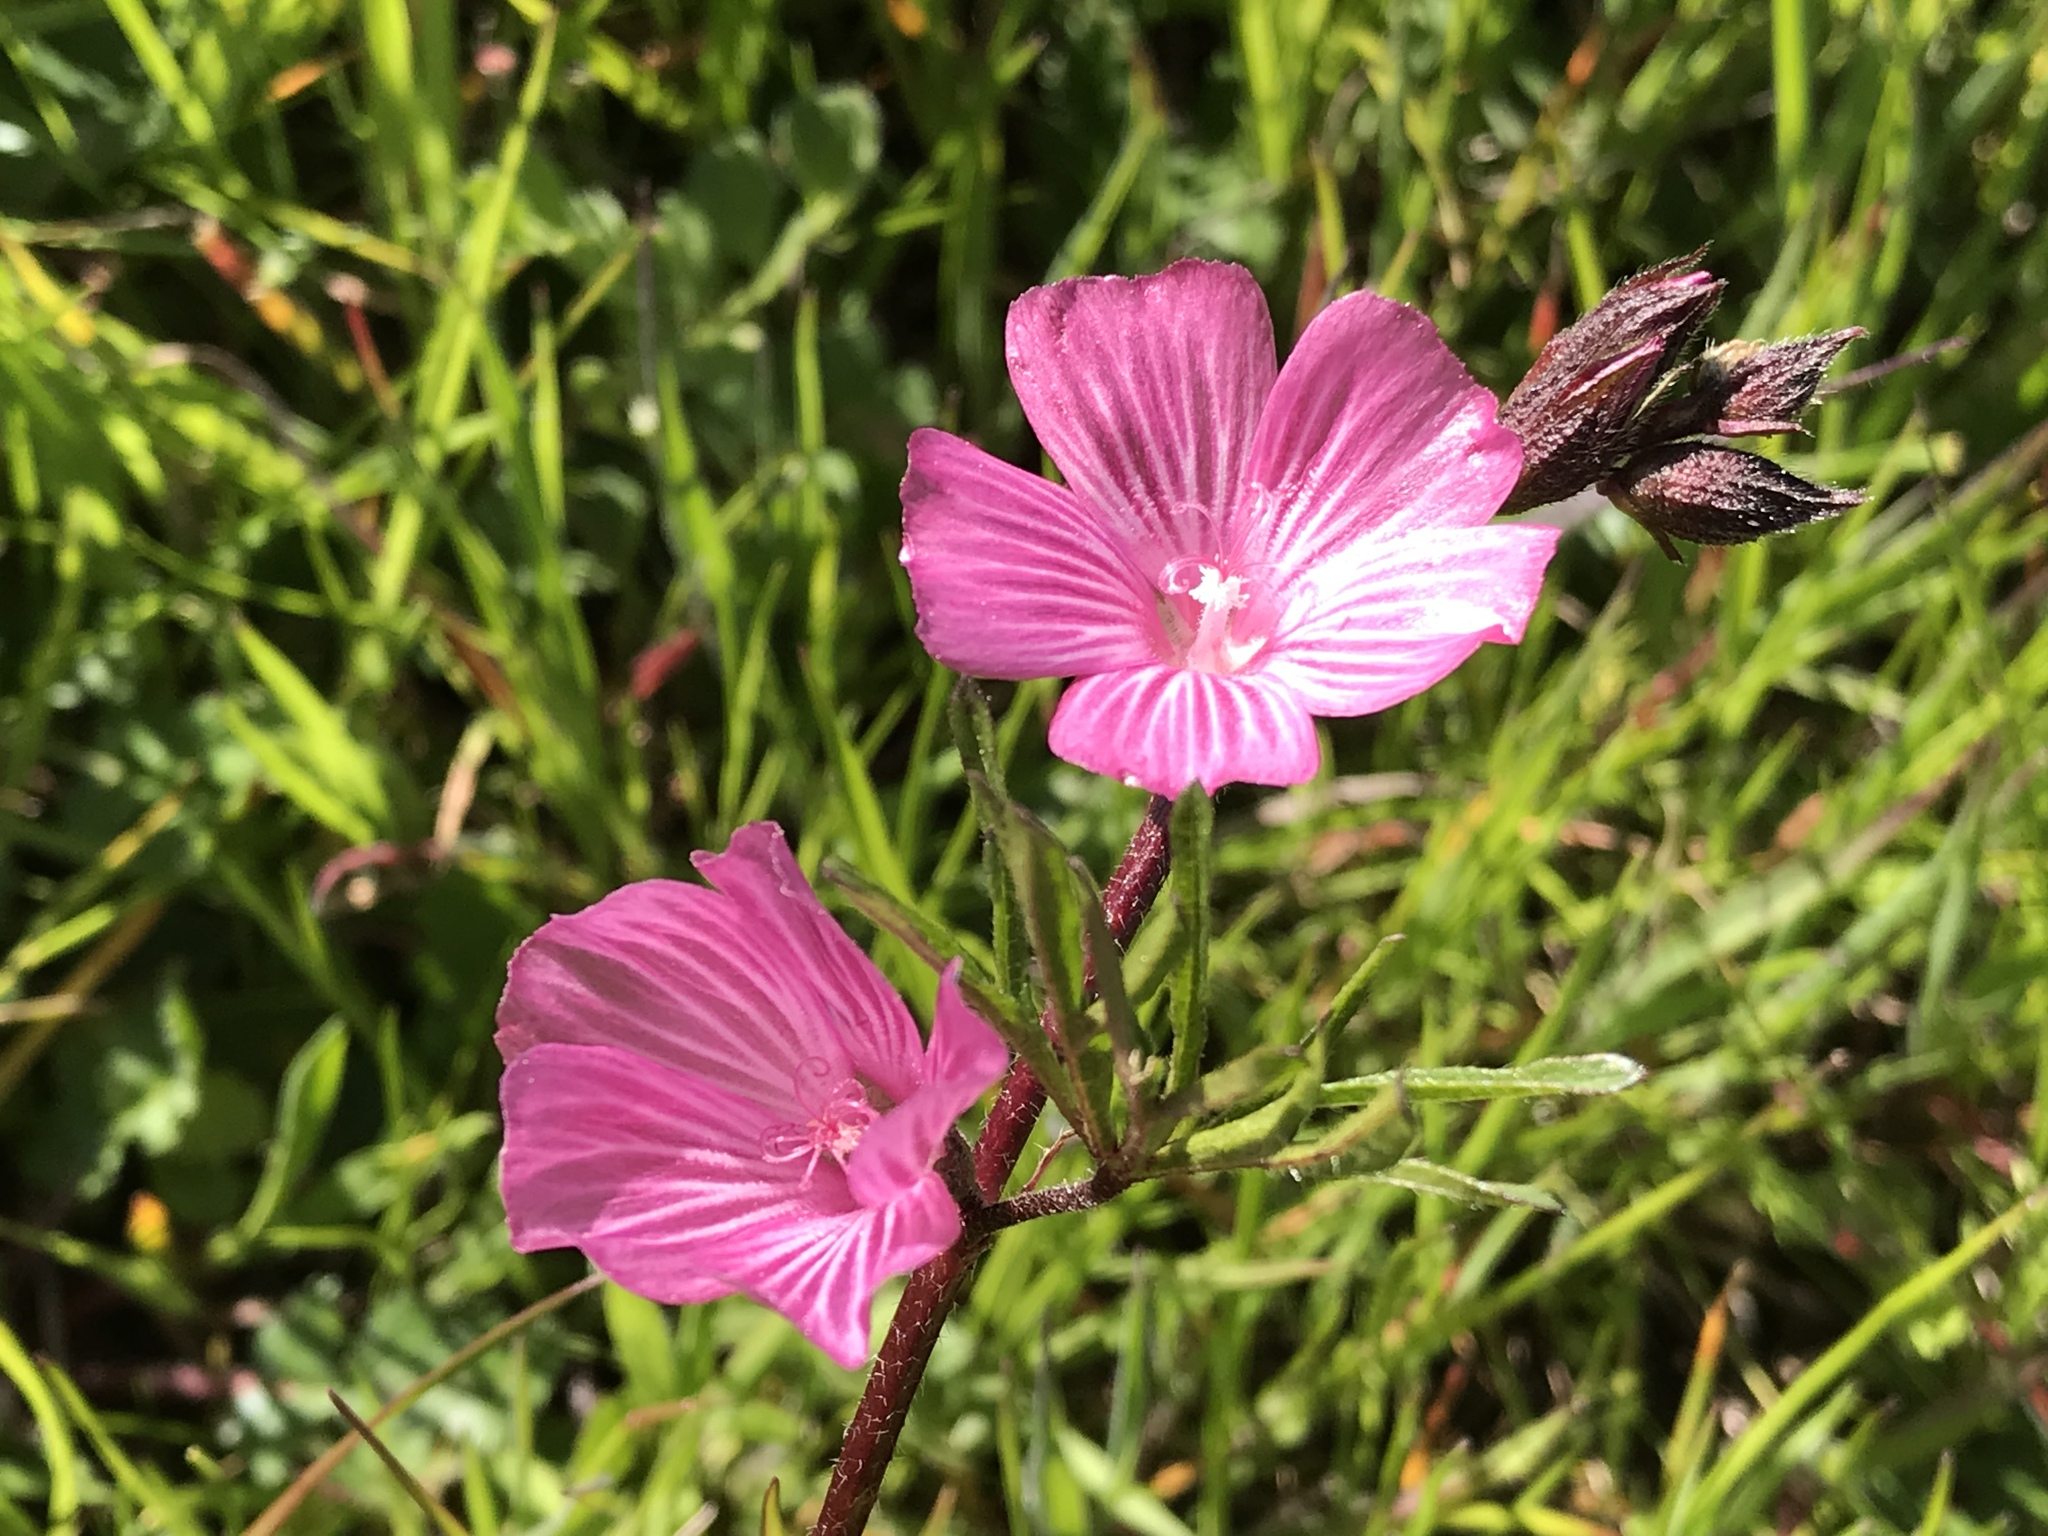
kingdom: Plantae
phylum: Tracheophyta
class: Magnoliopsida
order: Malvales
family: Malvaceae
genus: Sidalcea
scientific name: Sidalcea malviflora
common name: Greek mallow
